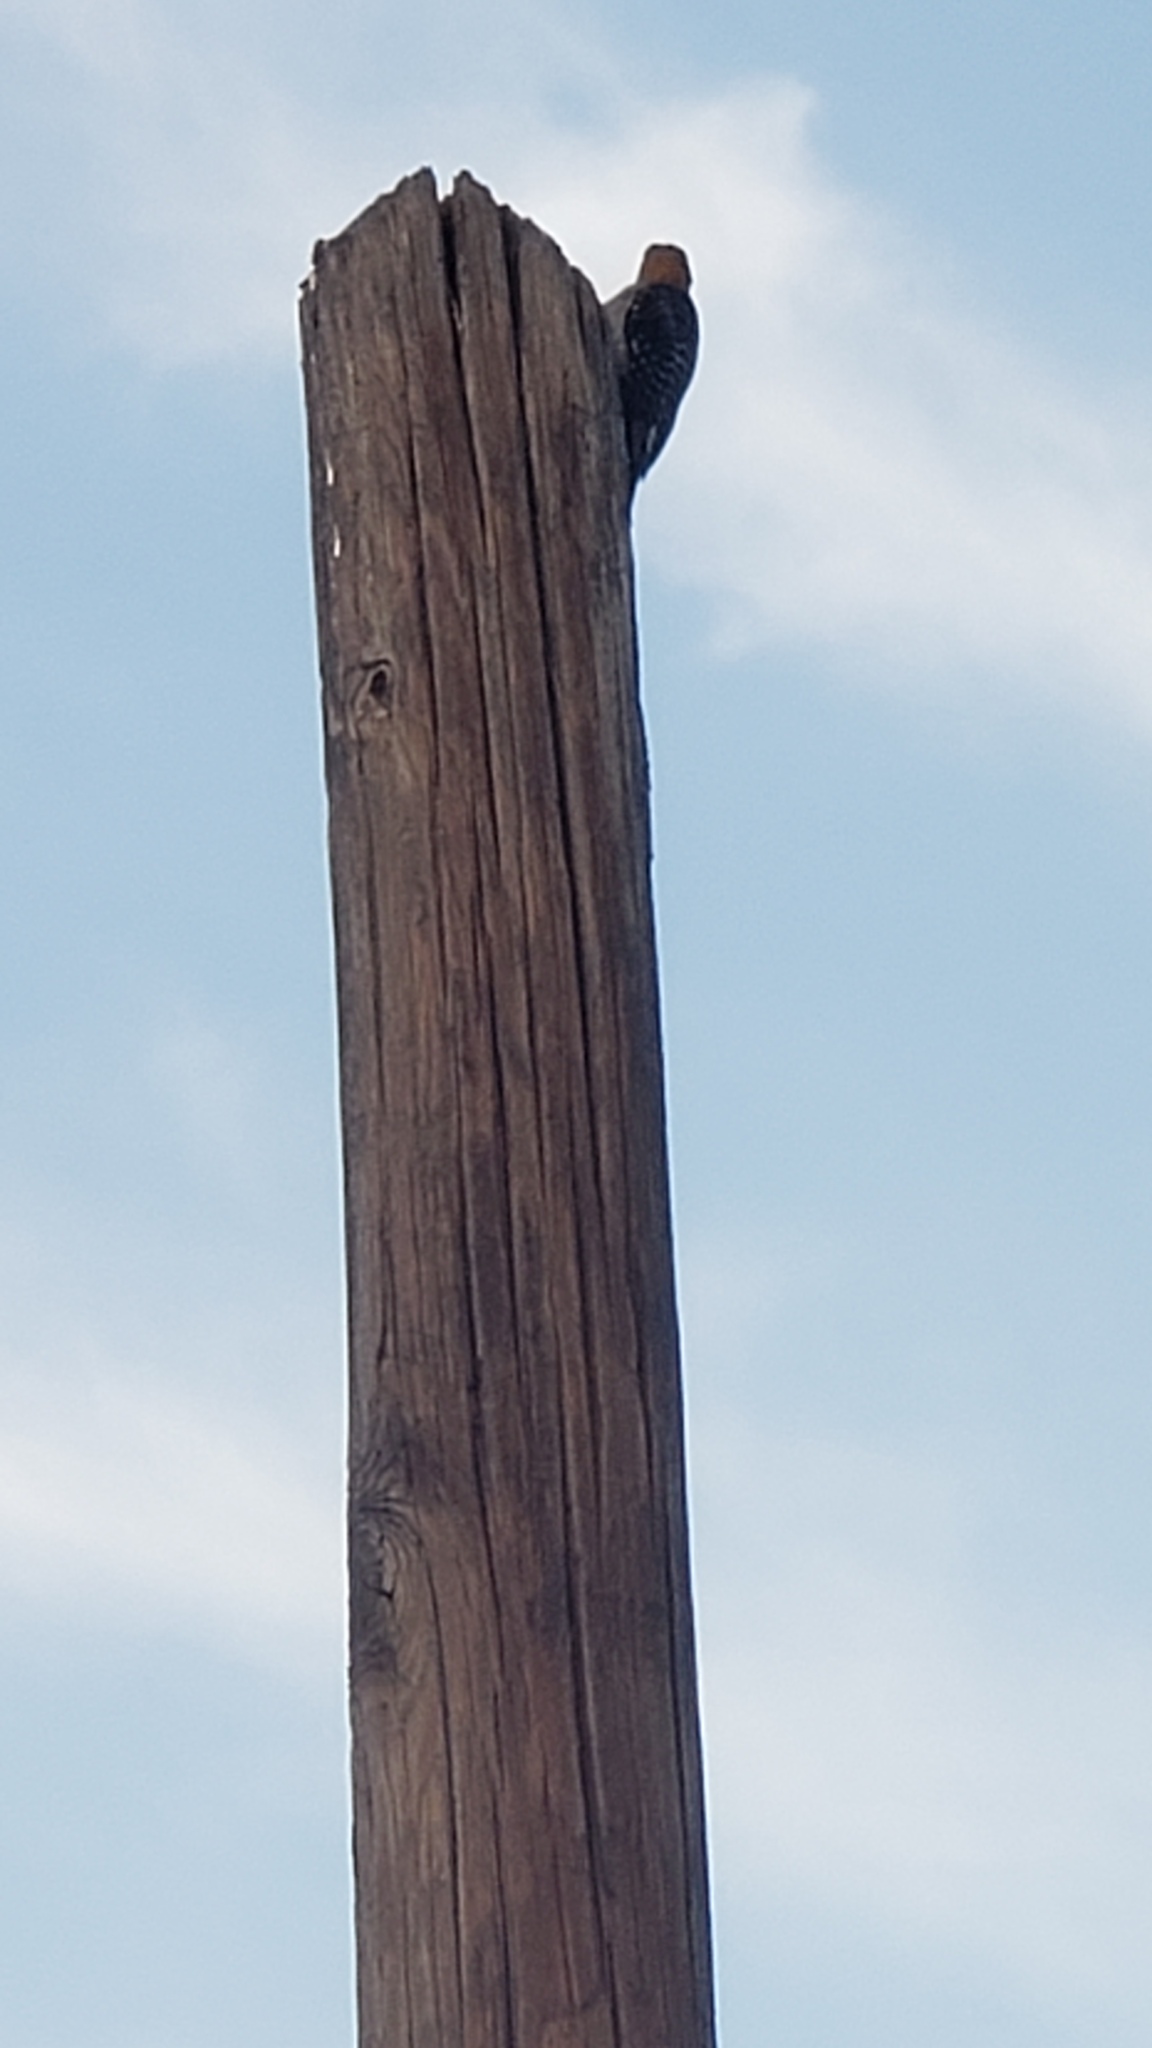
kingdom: Animalia
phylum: Chordata
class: Aves
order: Piciformes
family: Picidae
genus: Melanerpes
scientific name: Melanerpes aurifrons
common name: Golden-fronted woodpecker
